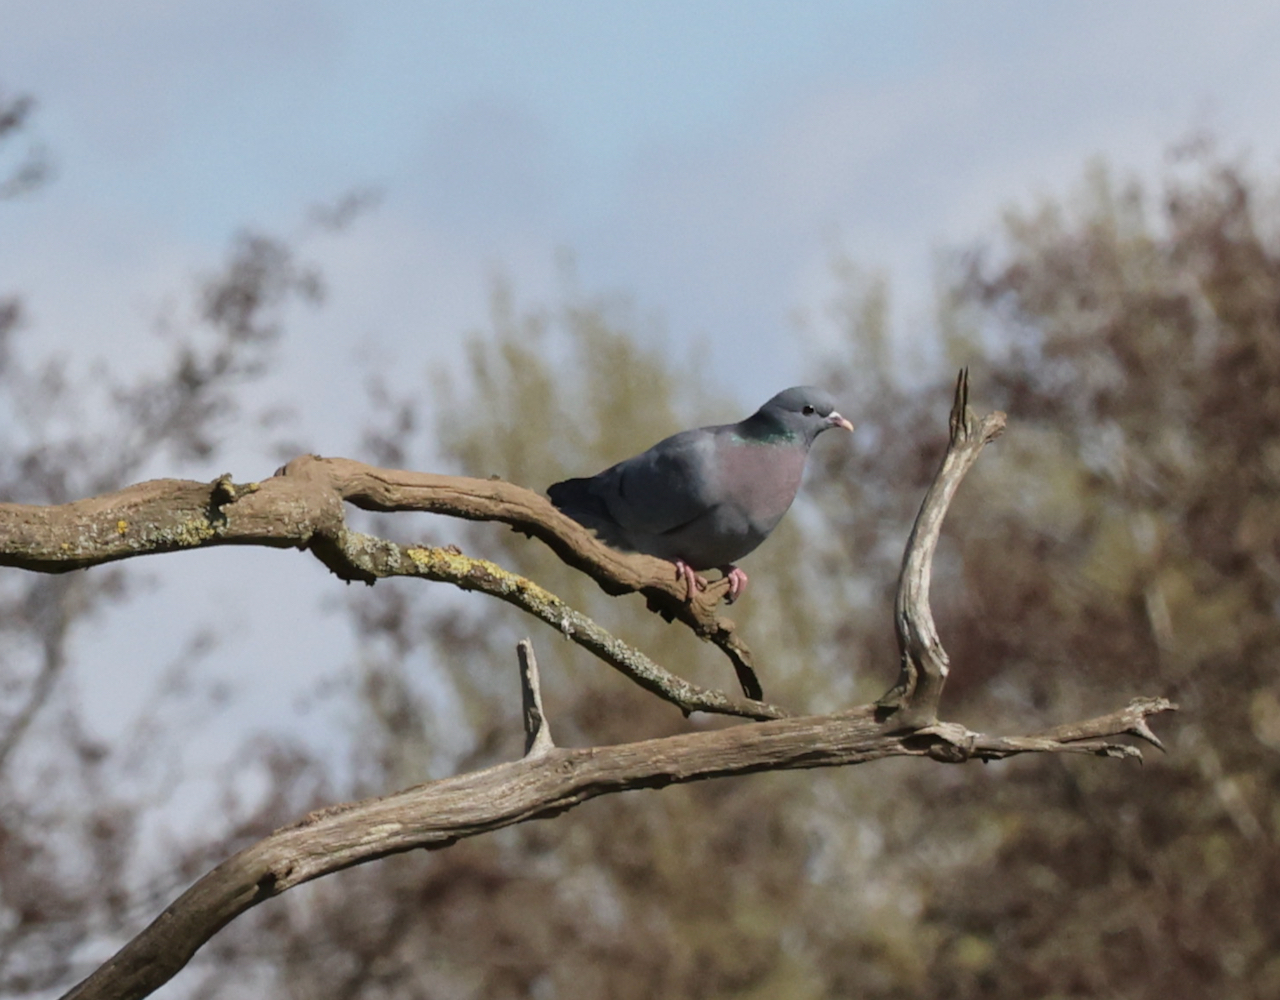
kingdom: Animalia
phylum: Chordata
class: Aves
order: Columbiformes
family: Columbidae
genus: Columba
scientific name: Columba oenas
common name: Stock dove
